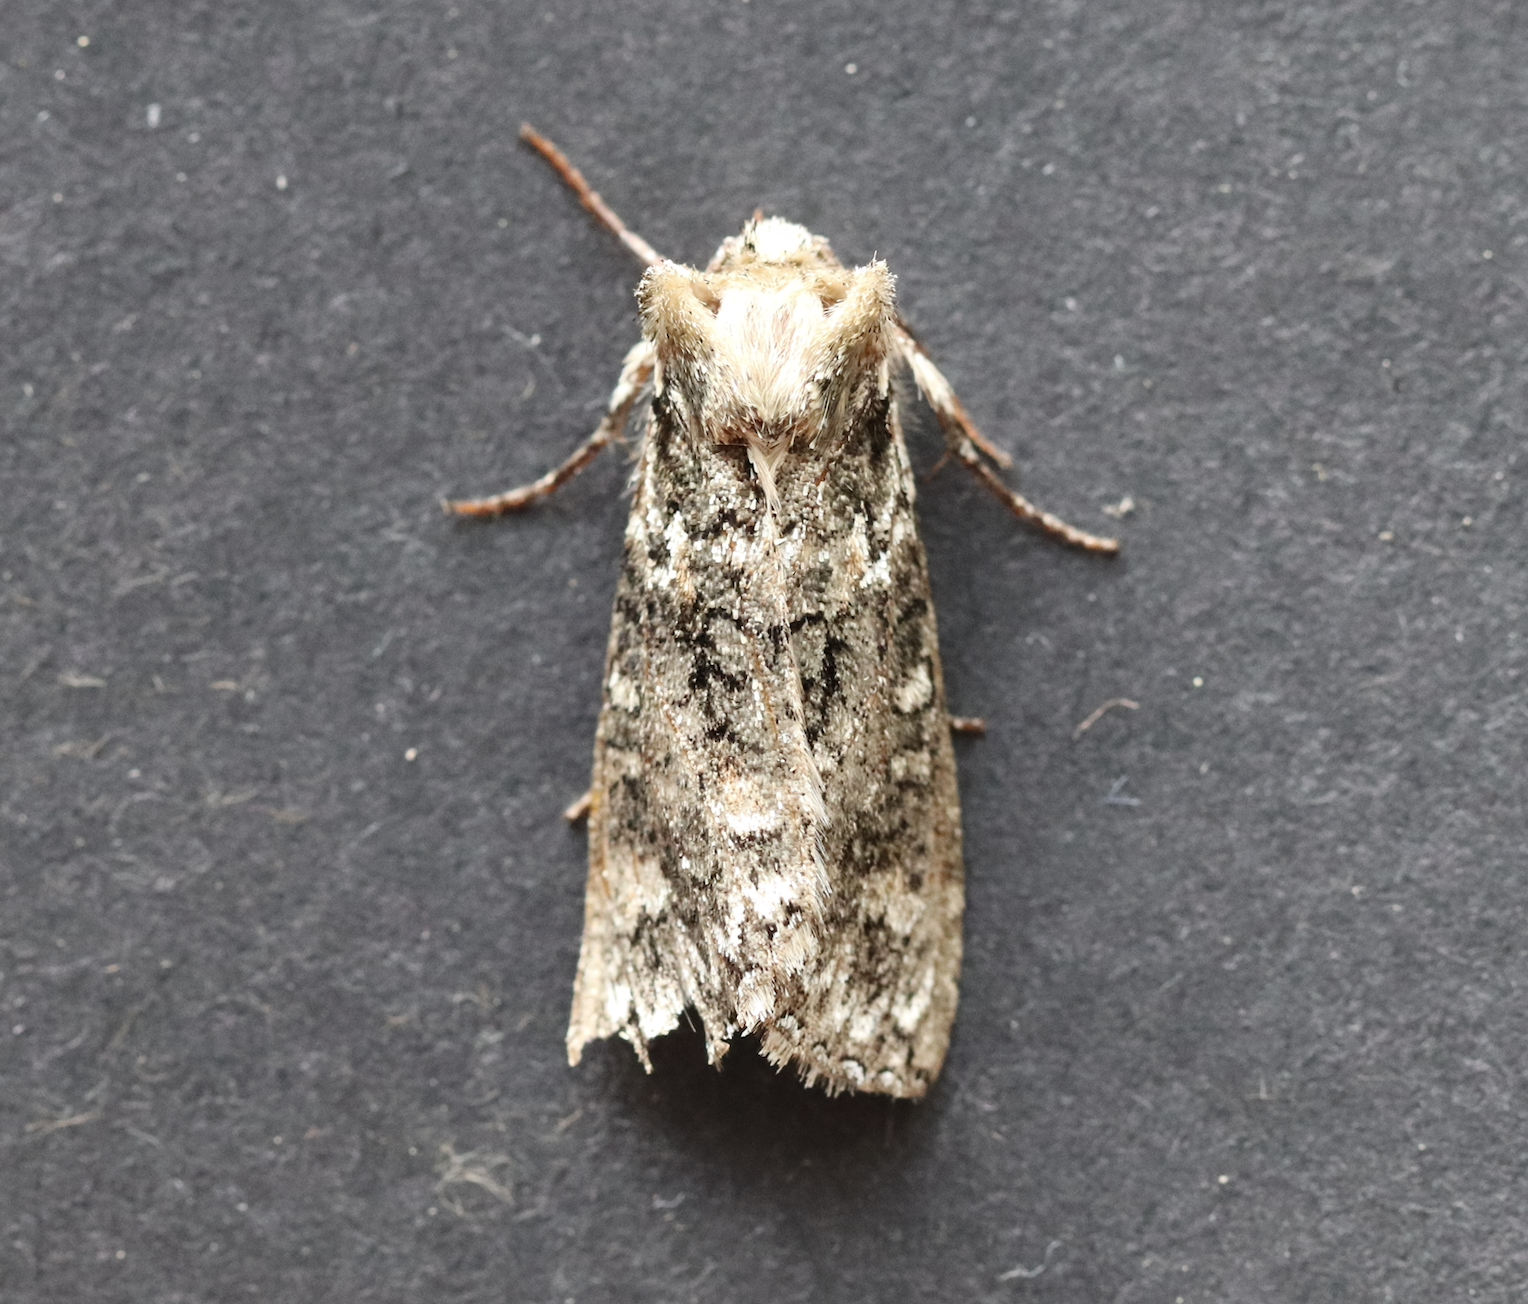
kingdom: Animalia
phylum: Arthropoda
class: Insecta
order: Lepidoptera
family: Drepanidae
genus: Polyploca
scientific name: Polyploca ridens
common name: Frosted green
